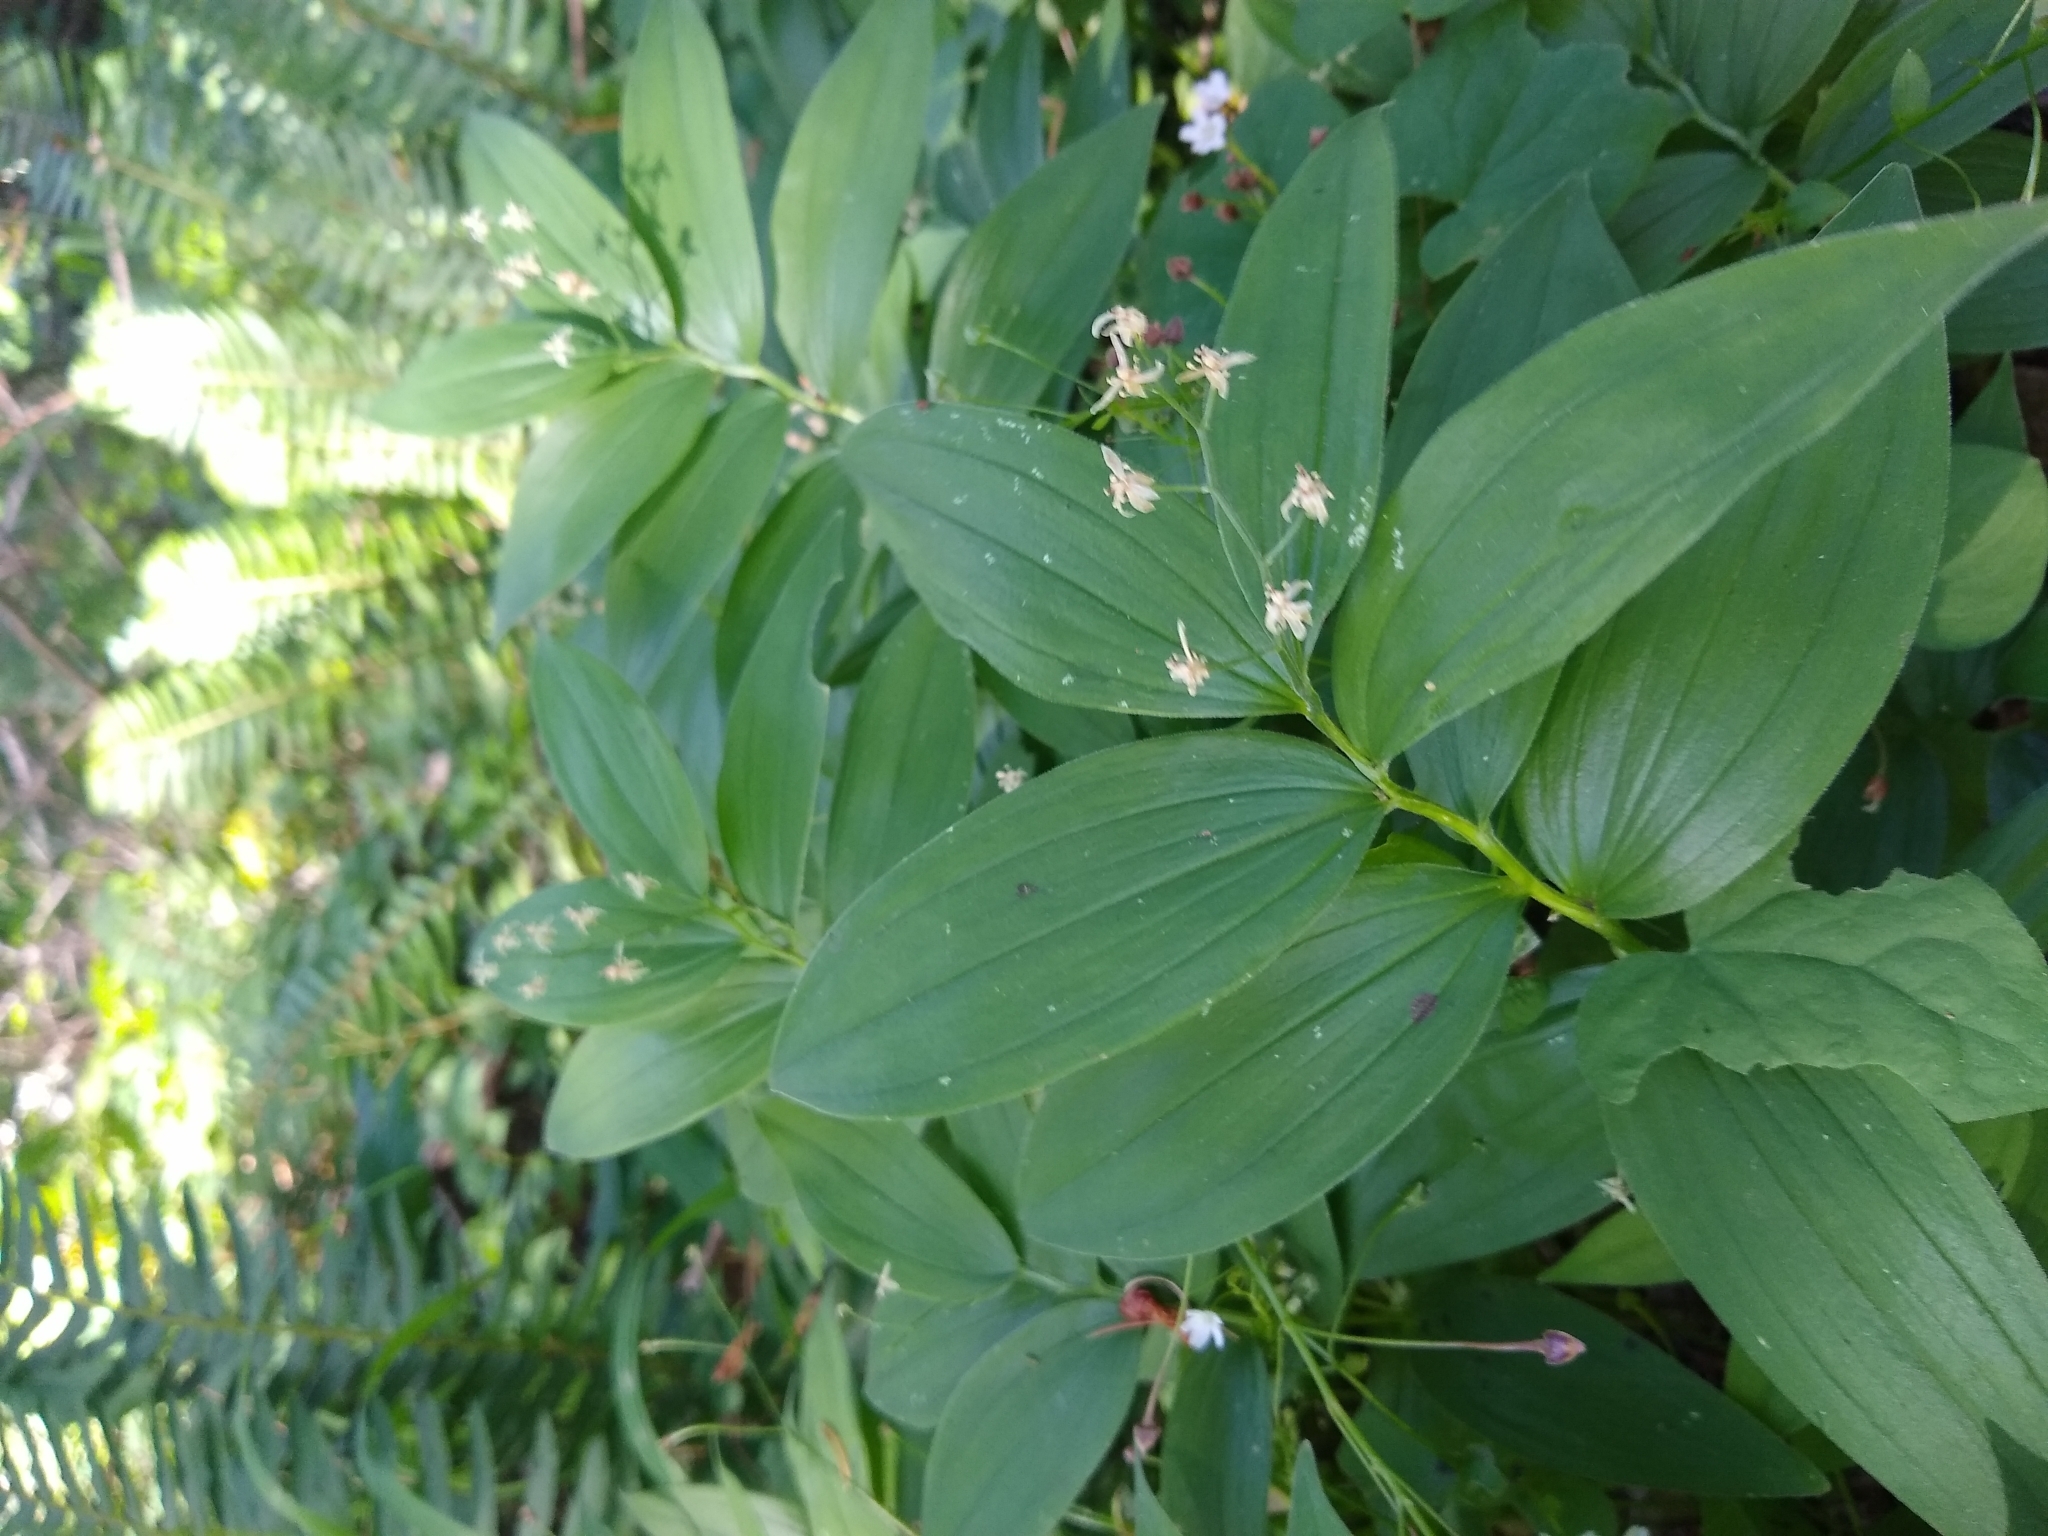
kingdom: Plantae
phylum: Tracheophyta
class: Liliopsida
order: Asparagales
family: Asparagaceae
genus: Maianthemum
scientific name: Maianthemum stellatum
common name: Little false solomon's seal
